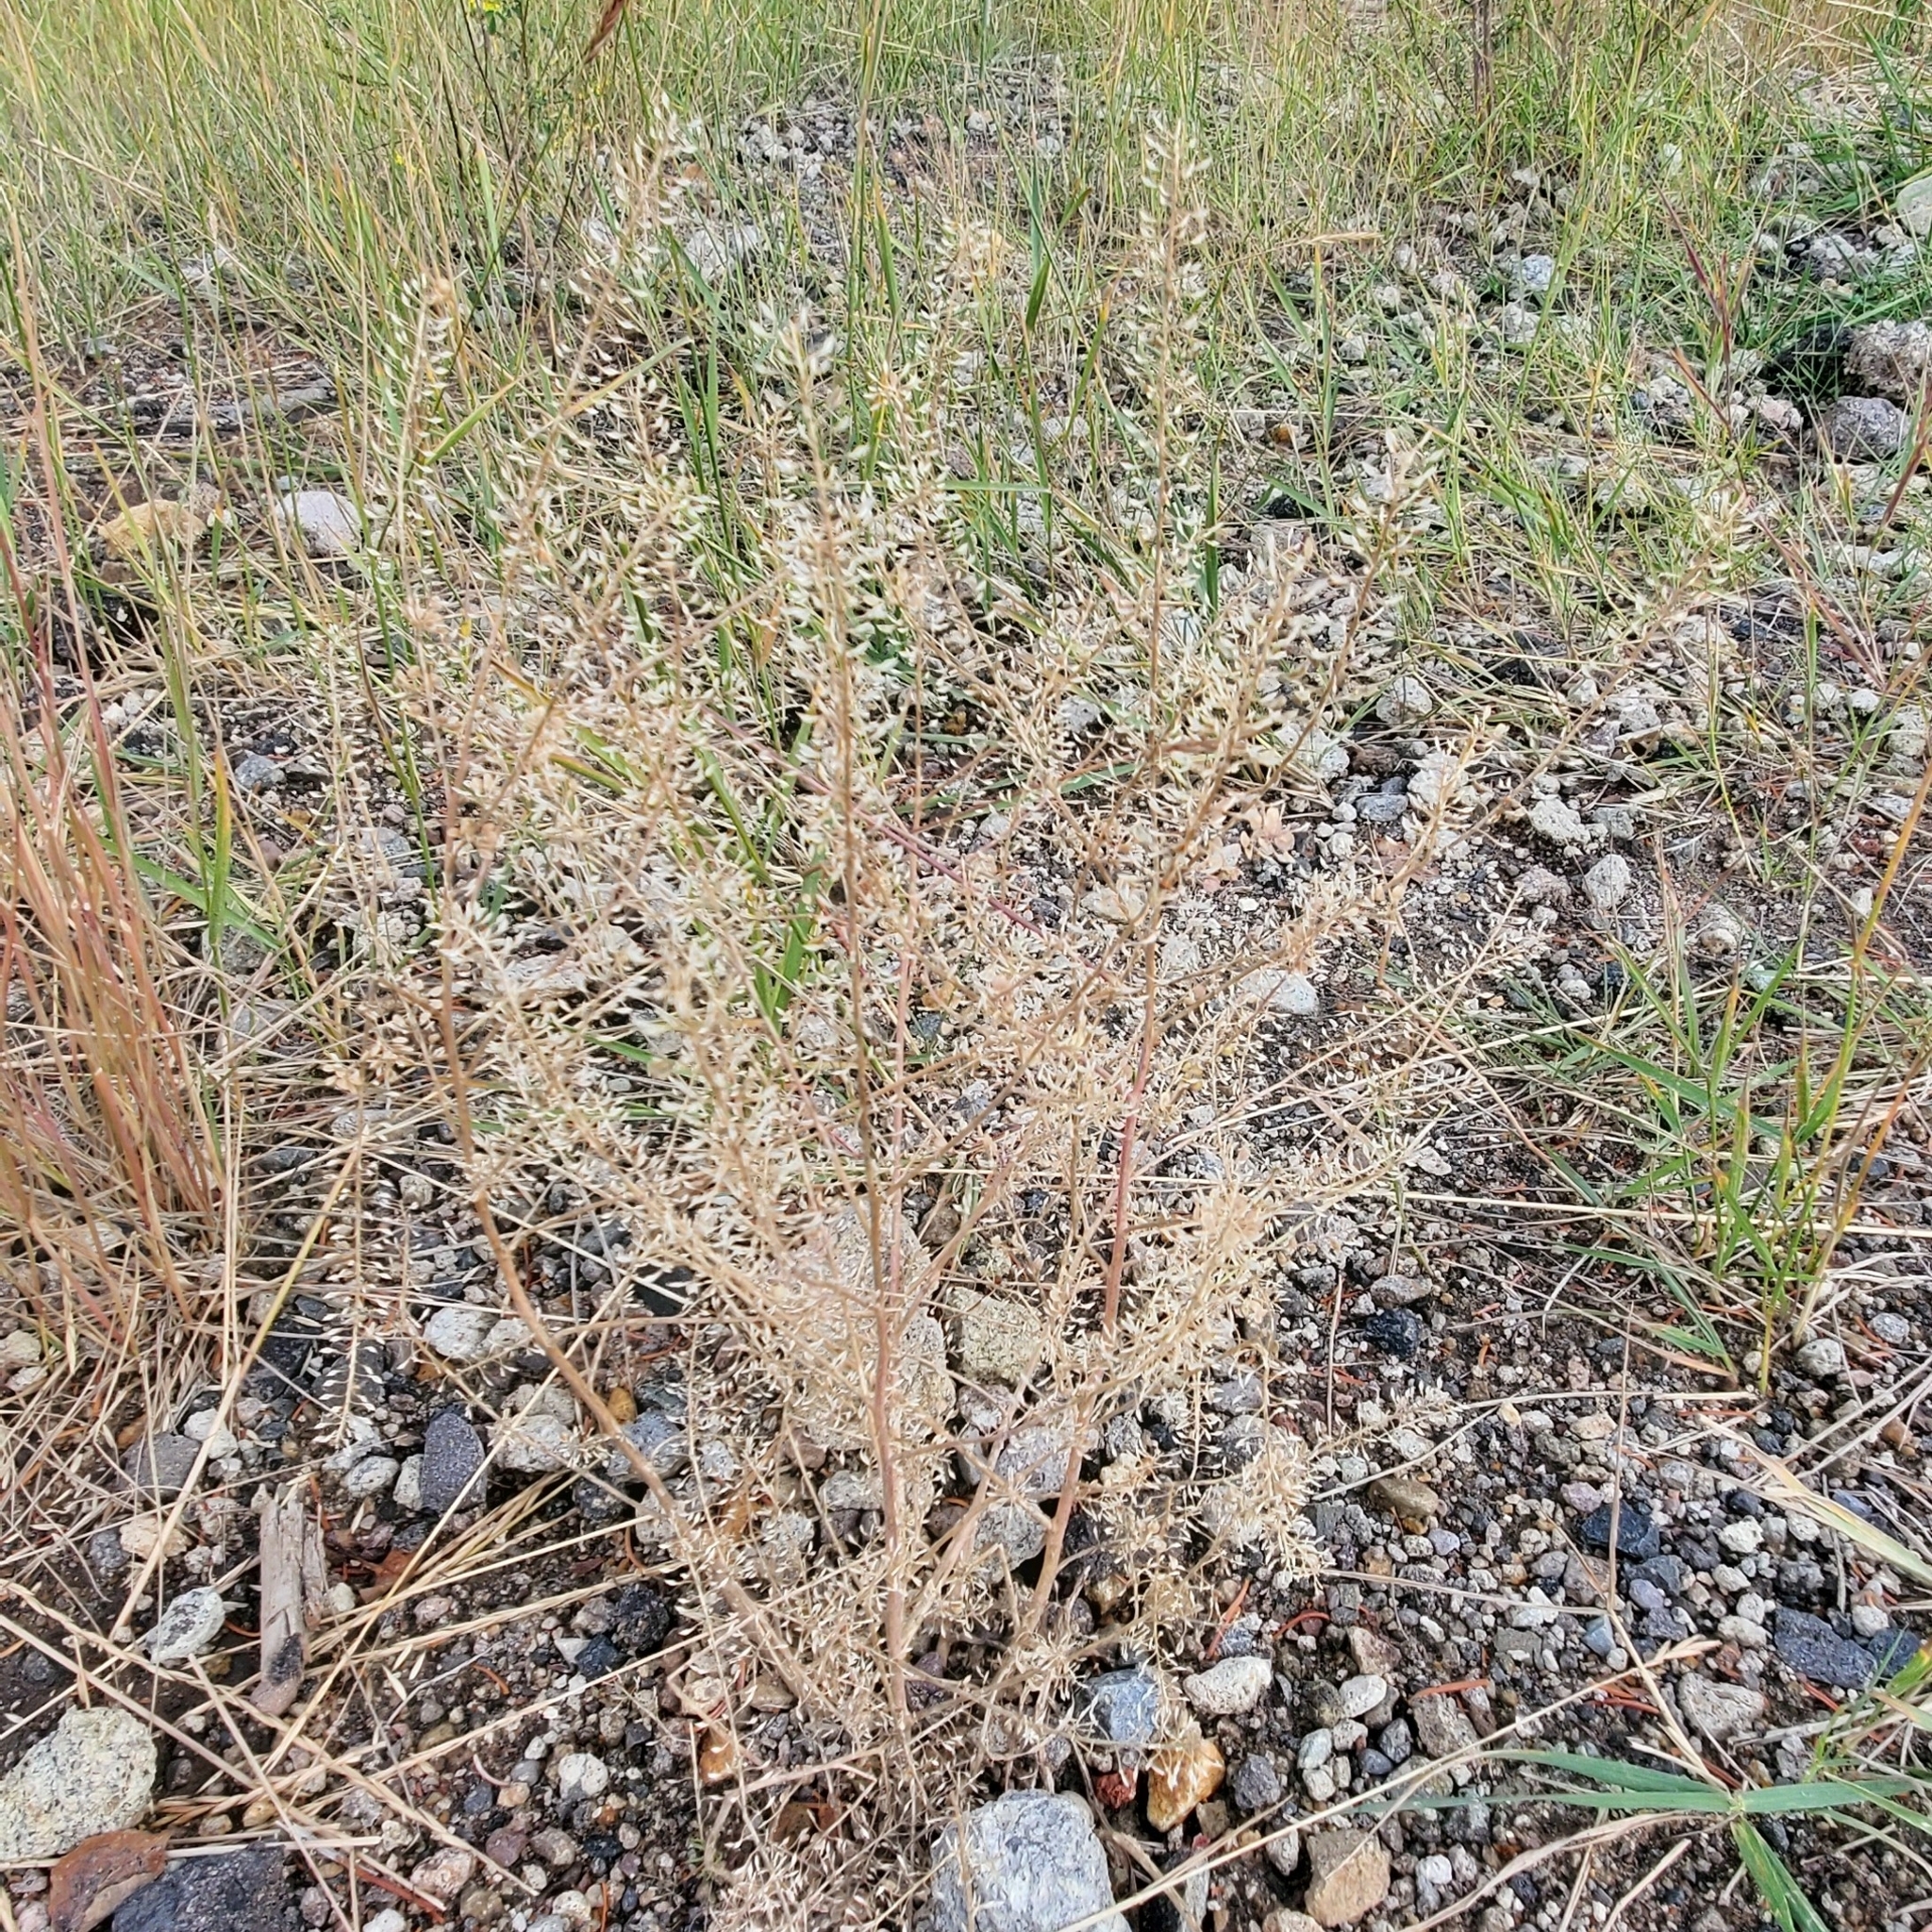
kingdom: Plantae
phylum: Tracheophyta
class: Magnoliopsida
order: Brassicales
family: Brassicaceae
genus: Lepidium
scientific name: Lepidium campestre
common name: Field pepperwort
